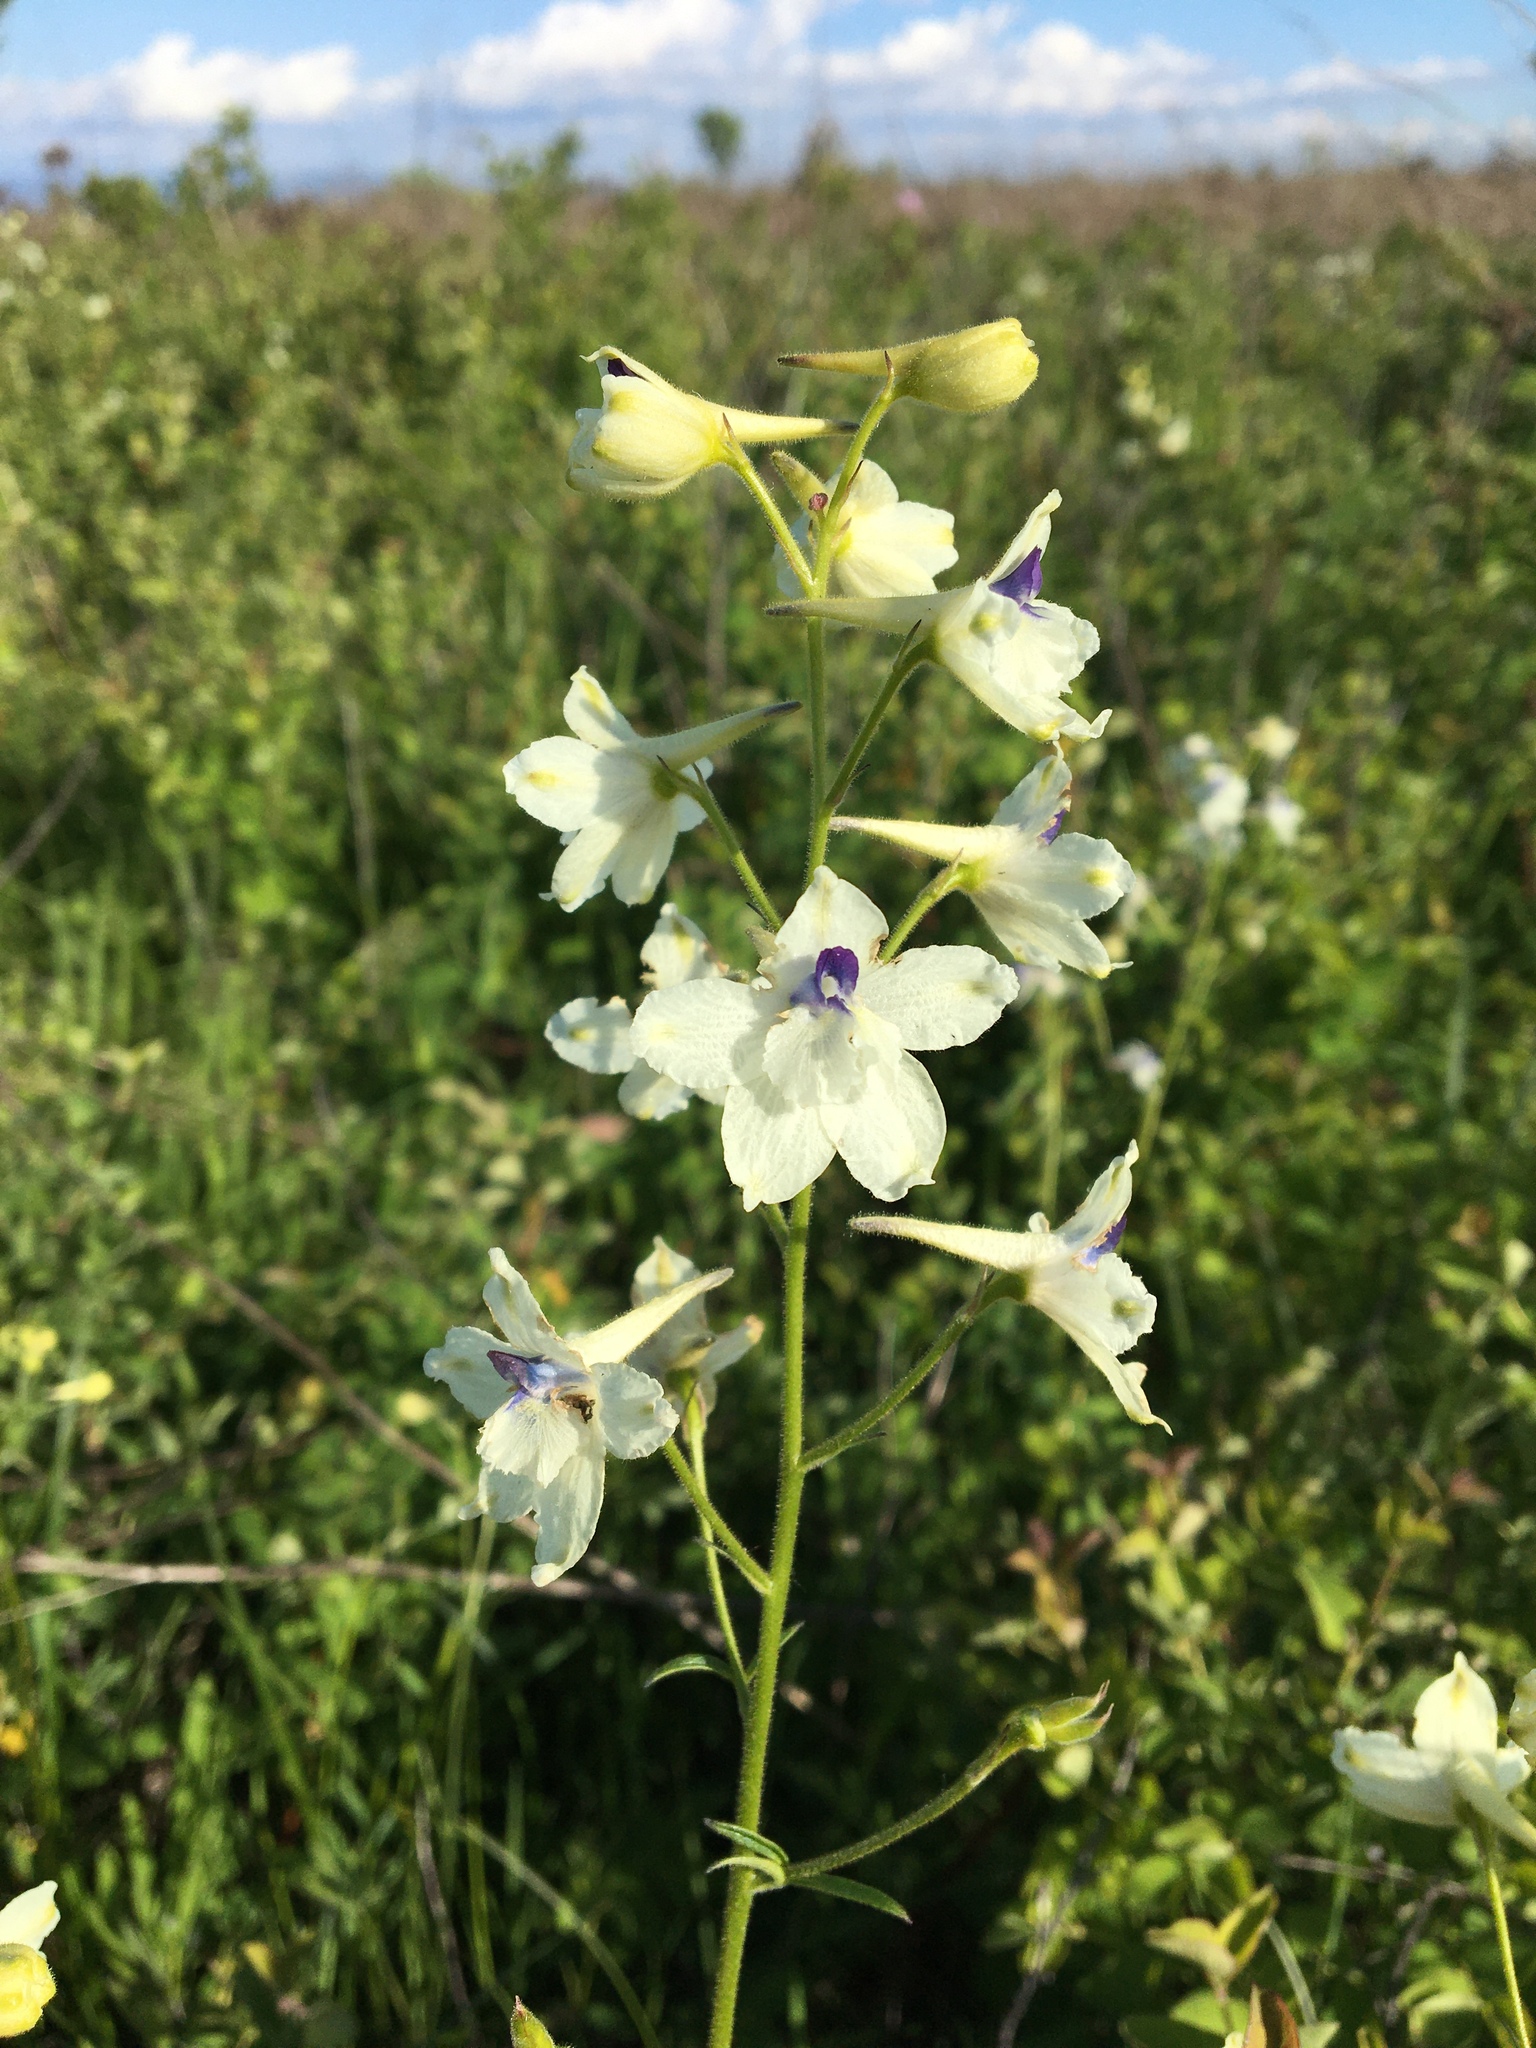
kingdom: Plantae
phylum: Tracheophyta
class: Magnoliopsida
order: Ranunculales
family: Ranunculaceae
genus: Delphinium
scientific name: Delphinium pavonaceum
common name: Peacock larkspur
